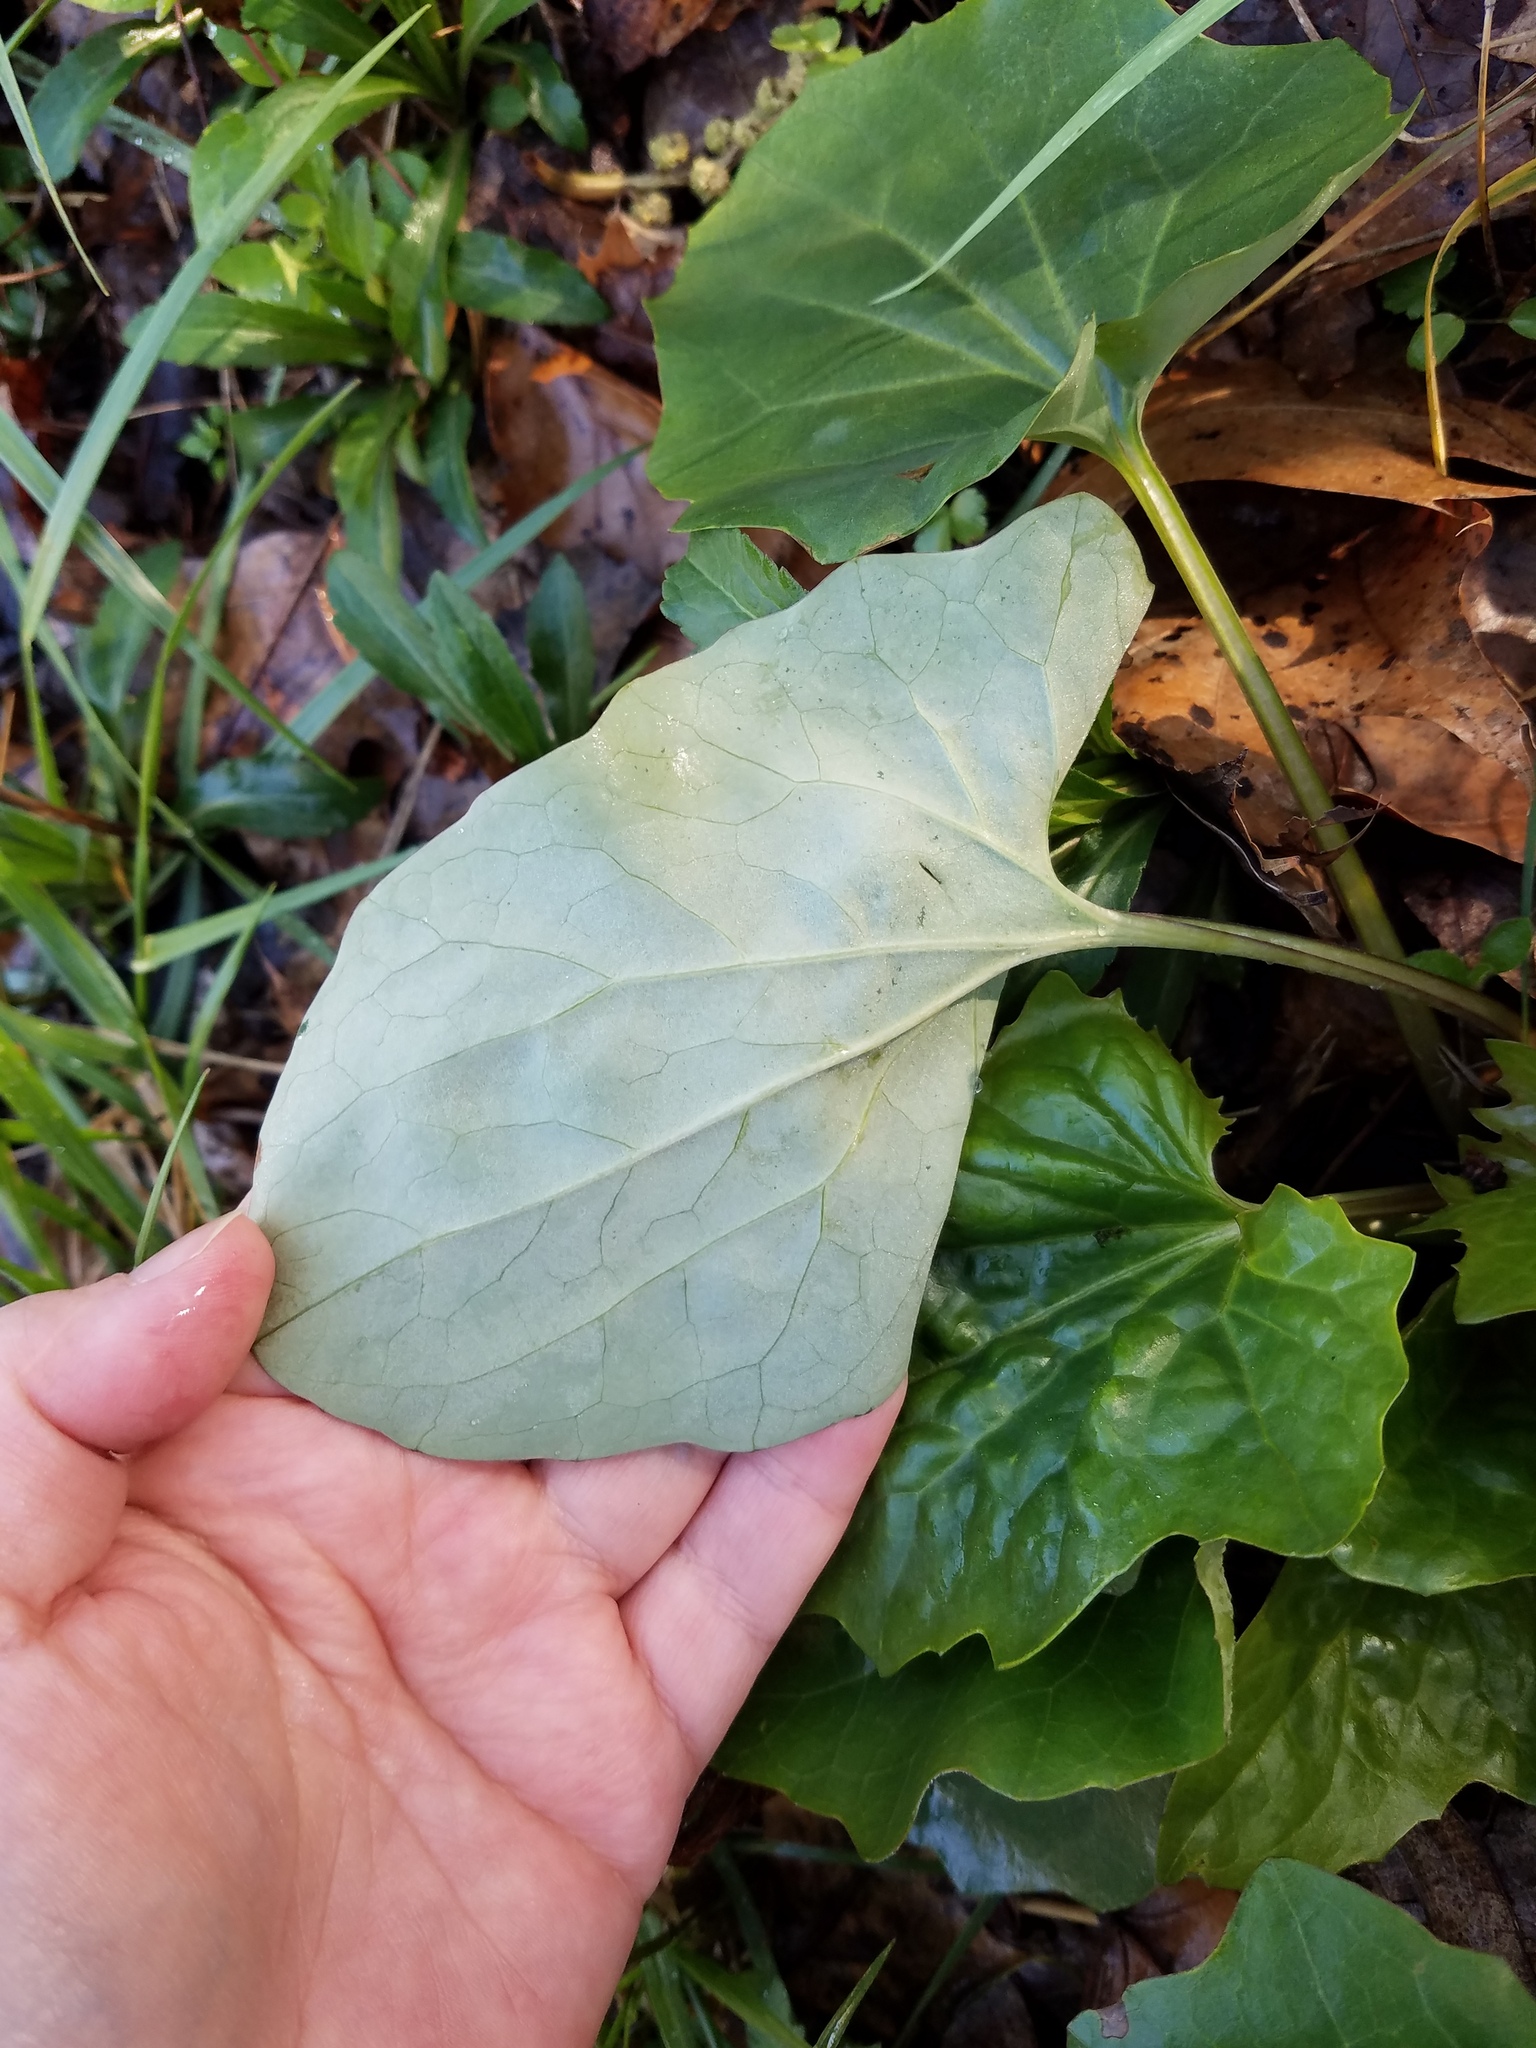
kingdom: Plantae
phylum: Tracheophyta
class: Magnoliopsida
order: Asterales
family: Asteraceae
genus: Arnoglossum
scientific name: Arnoglossum atriplicifolium
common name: Pale indian-plantain
